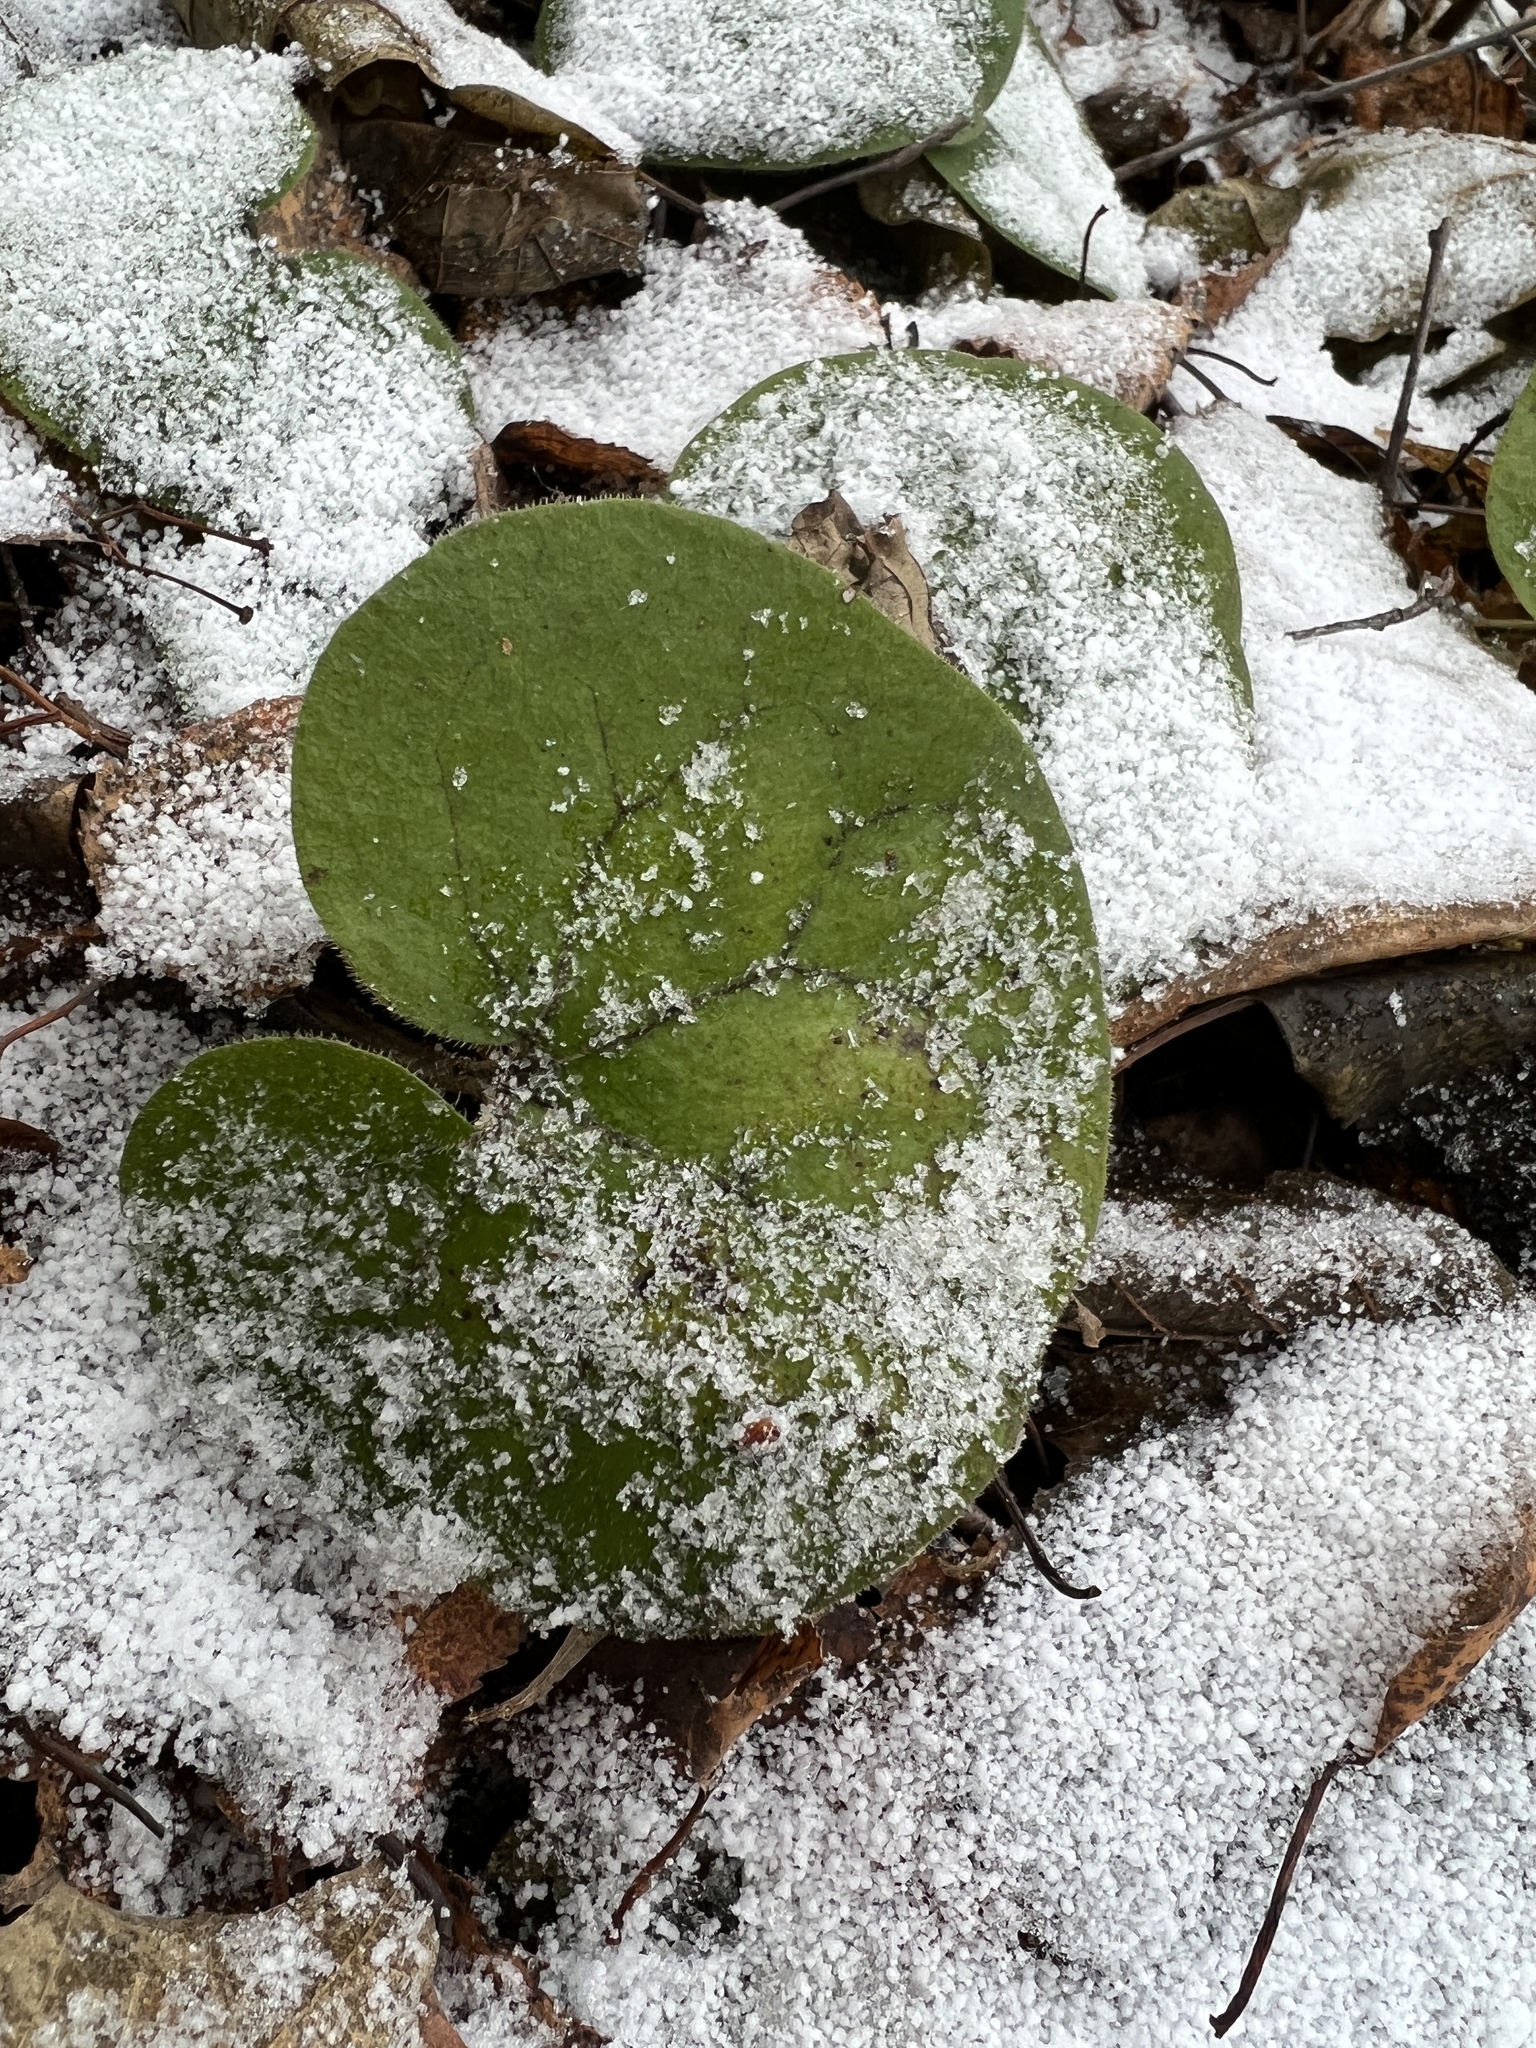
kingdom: Plantae
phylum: Tracheophyta
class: Magnoliopsida
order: Piperales
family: Aristolochiaceae
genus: Asarum
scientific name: Asarum europaeum
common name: Asarabacca
